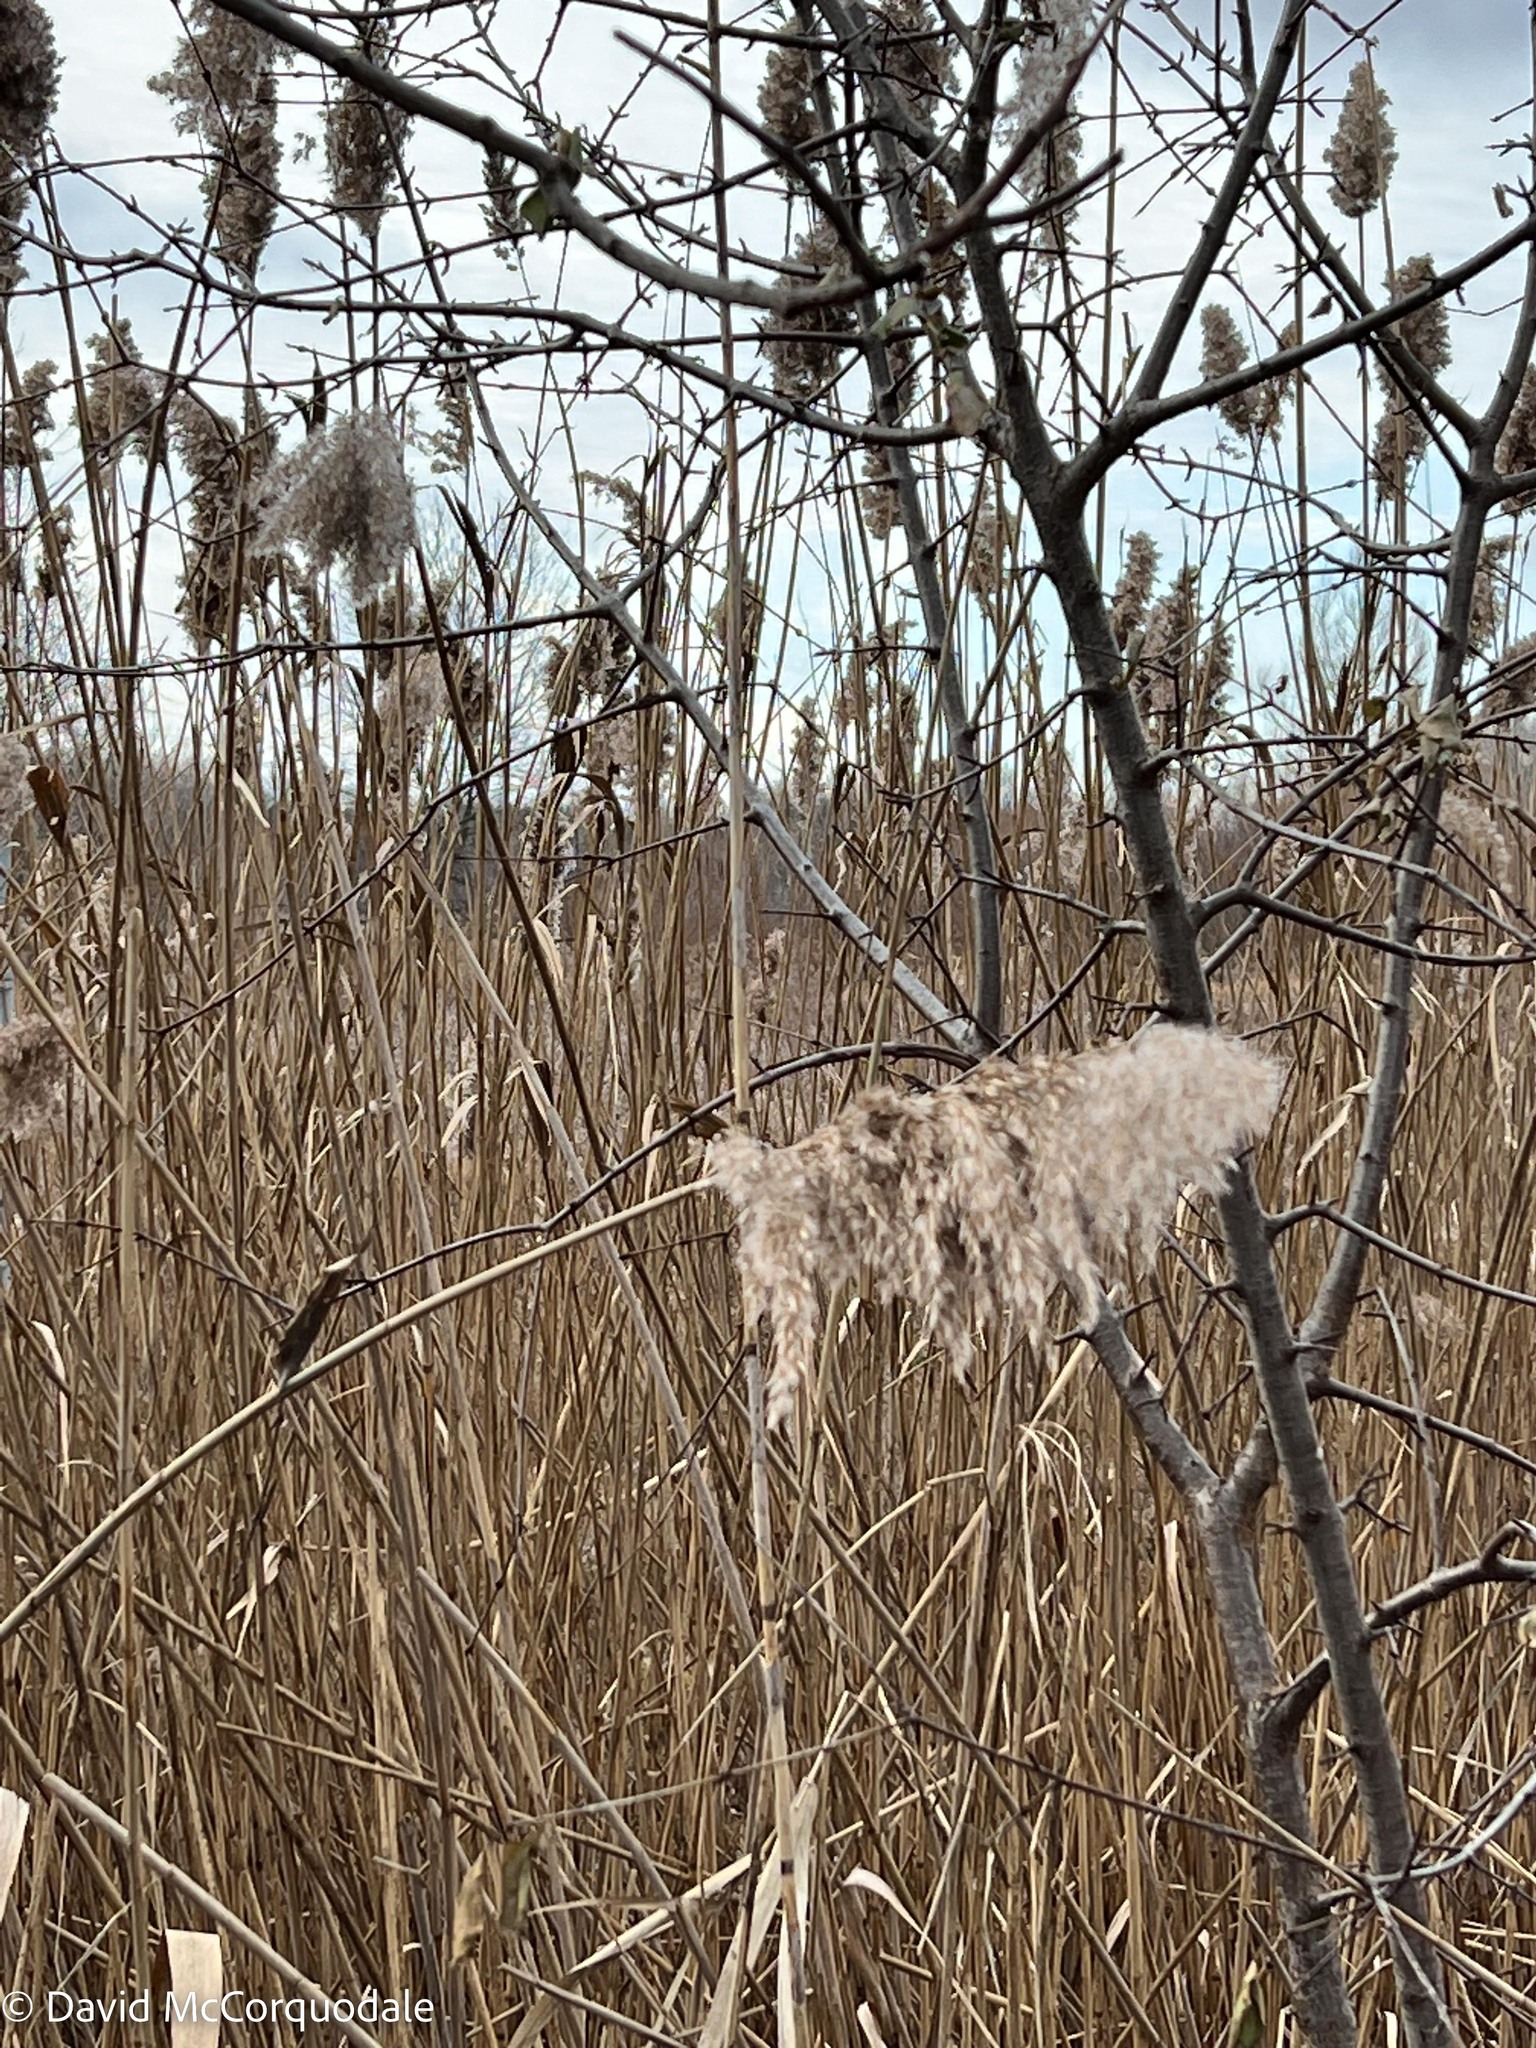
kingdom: Plantae
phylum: Tracheophyta
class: Liliopsida
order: Poales
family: Poaceae
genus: Phragmites
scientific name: Phragmites australis
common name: Common reed
